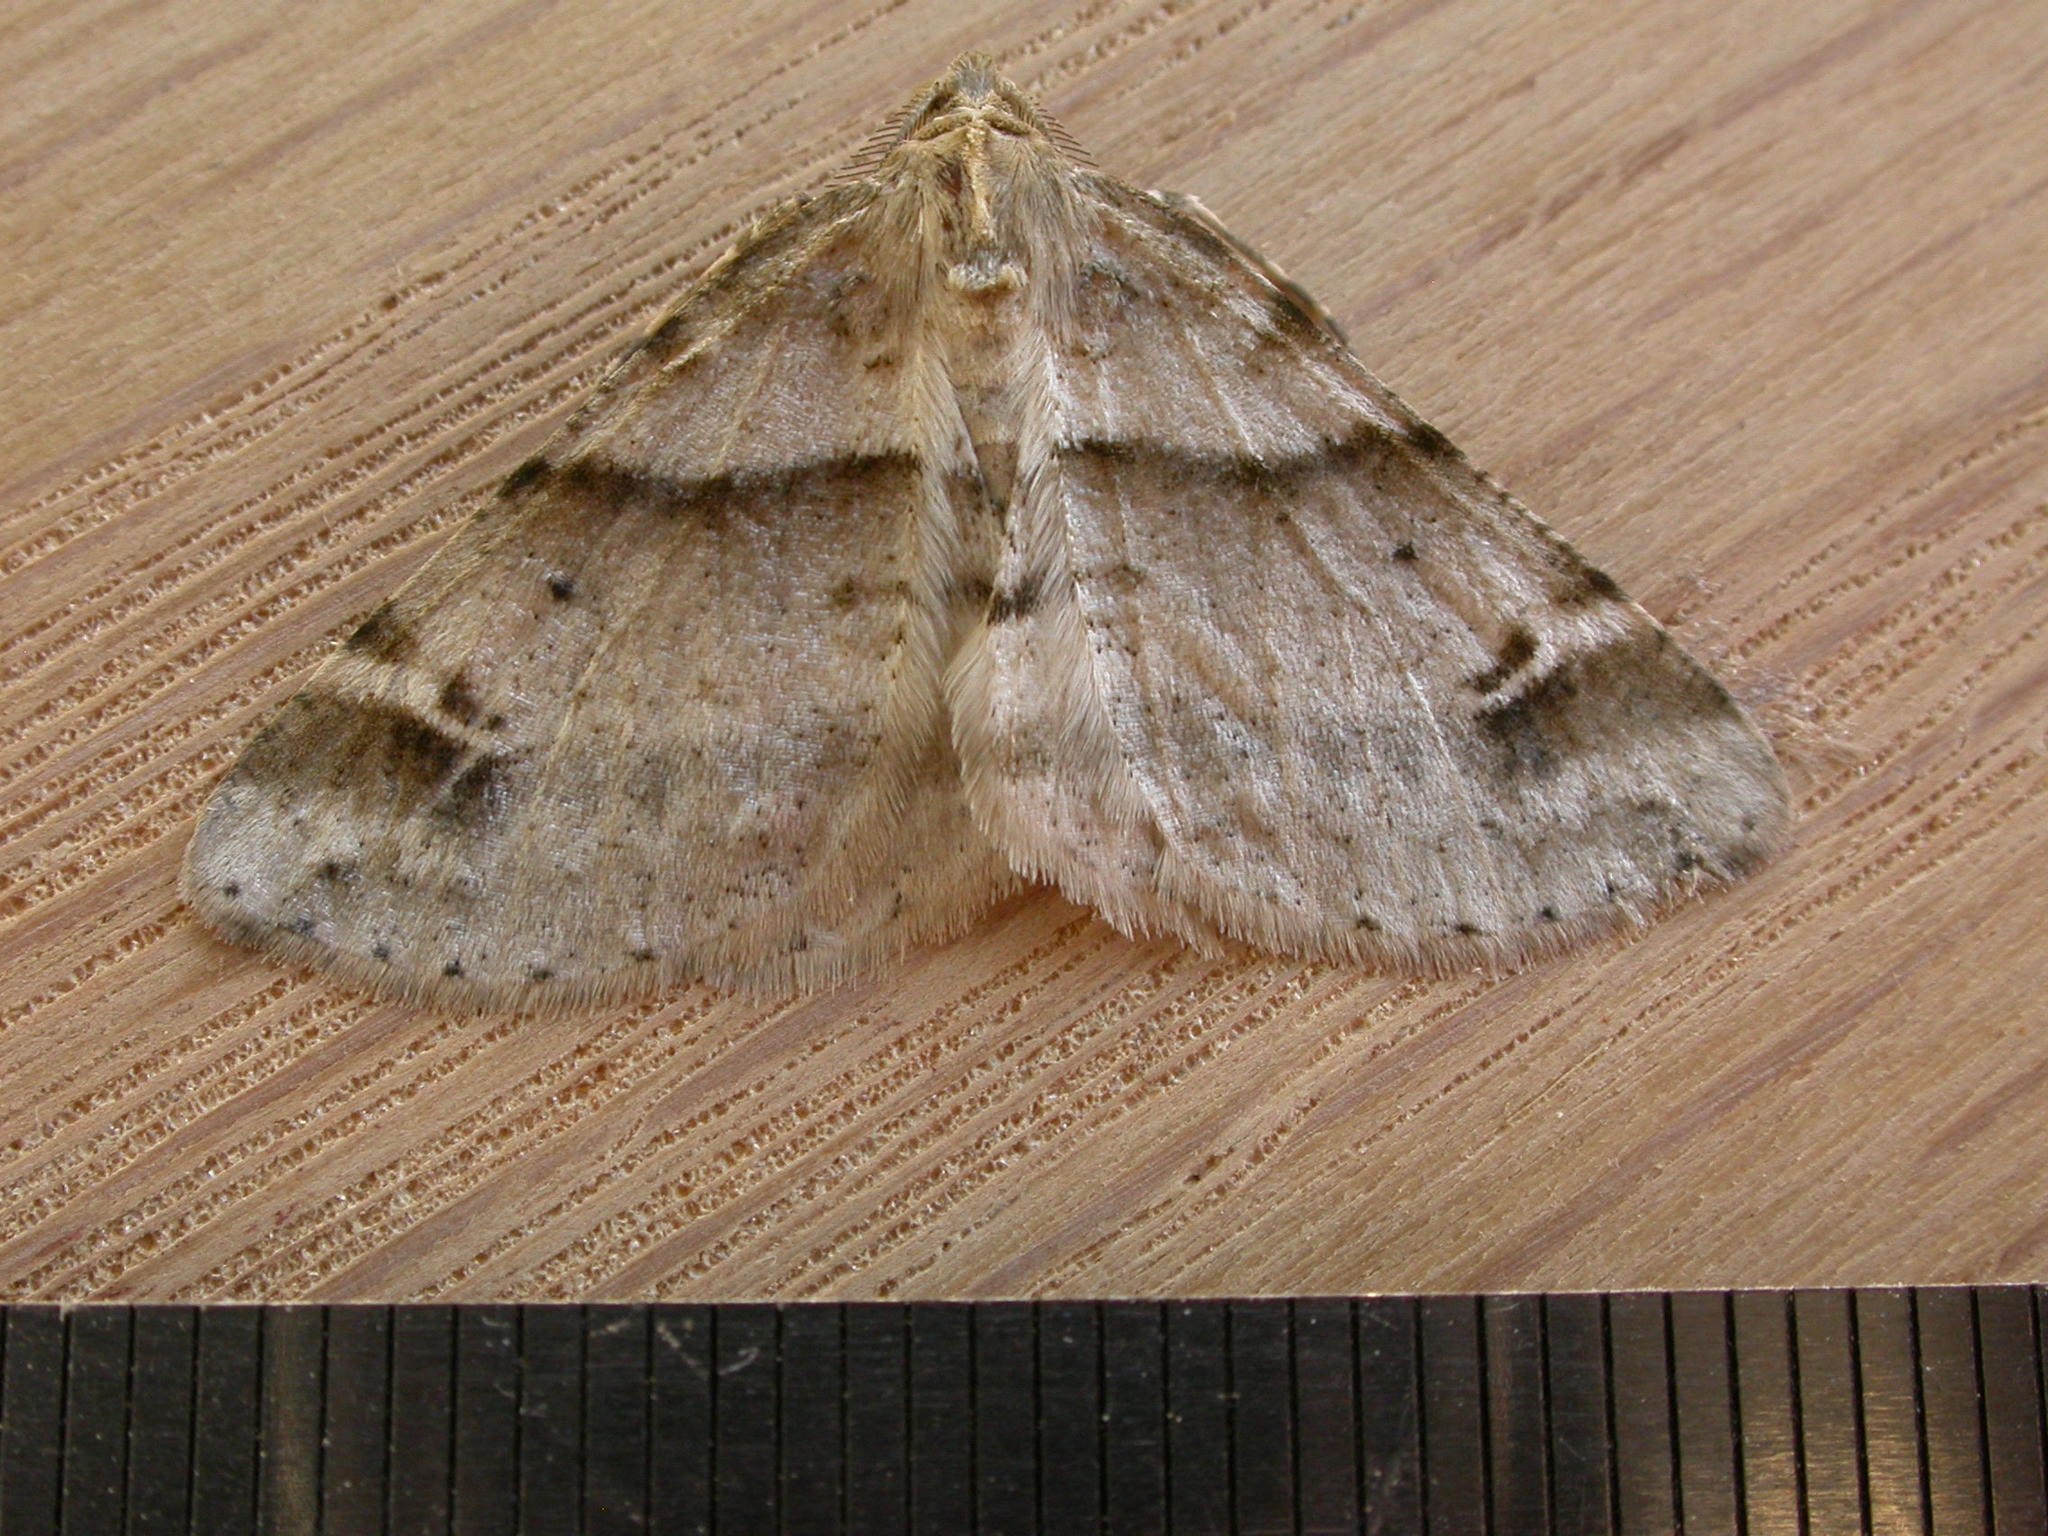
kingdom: Animalia
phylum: Arthropoda
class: Insecta
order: Lepidoptera
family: Geometridae
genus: Syneora
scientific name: Syneora hemeropa
